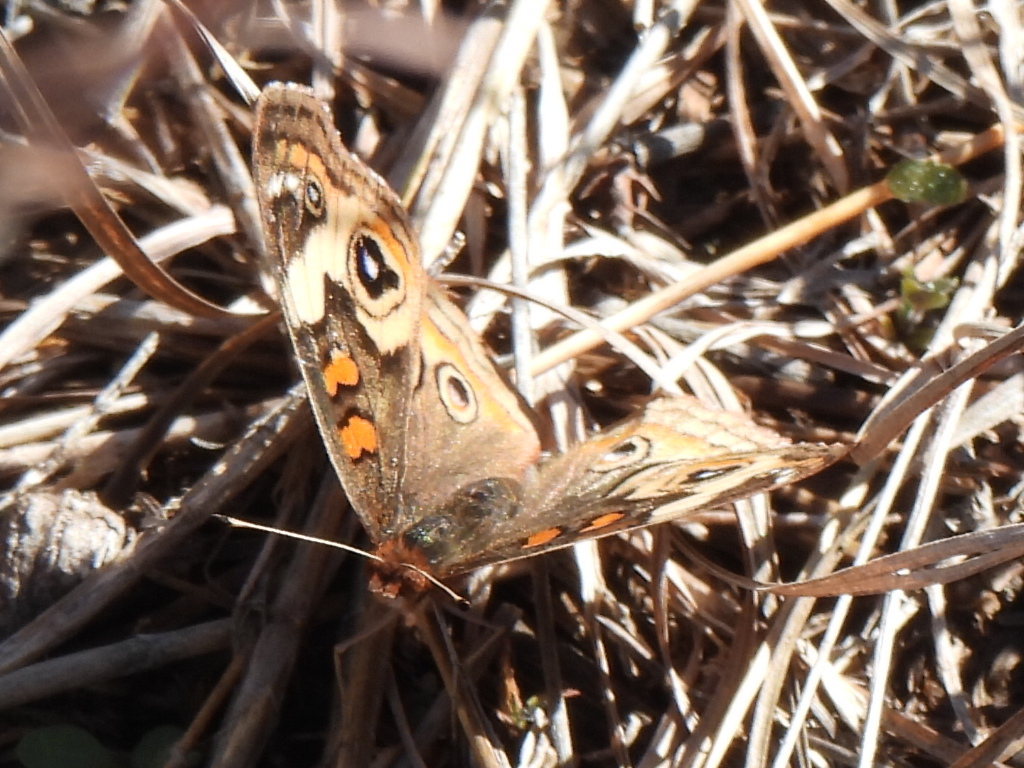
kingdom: Animalia
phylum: Arthropoda
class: Insecta
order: Lepidoptera
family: Nymphalidae
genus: Junonia
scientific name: Junonia coenia
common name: Common buckeye
